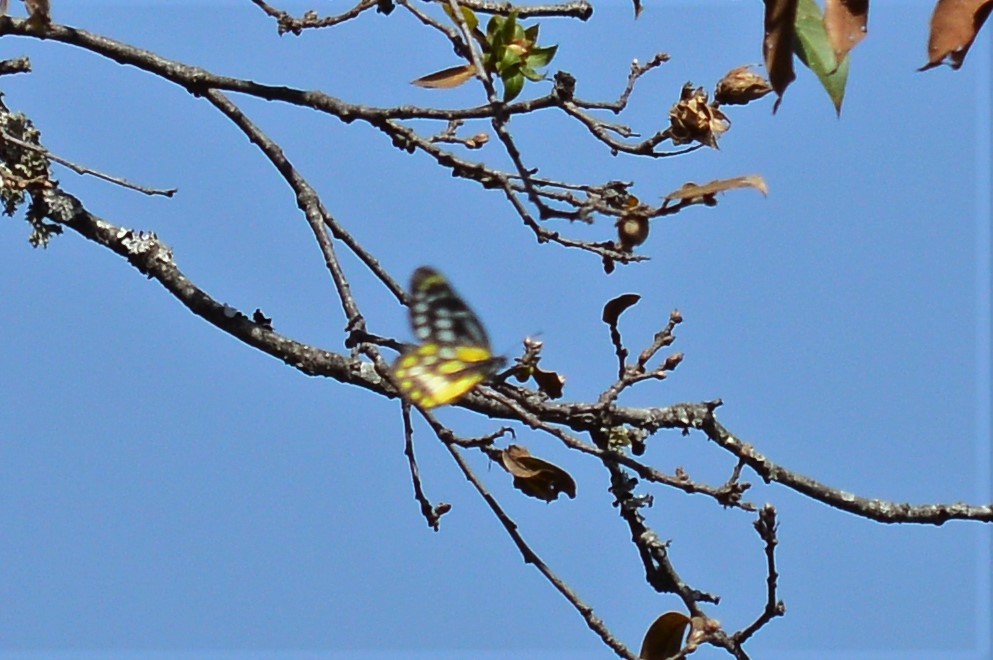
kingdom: Animalia
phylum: Arthropoda
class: Insecta
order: Lepidoptera
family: Pieridae
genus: Delias
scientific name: Delias belladonna
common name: Hill jezebel
